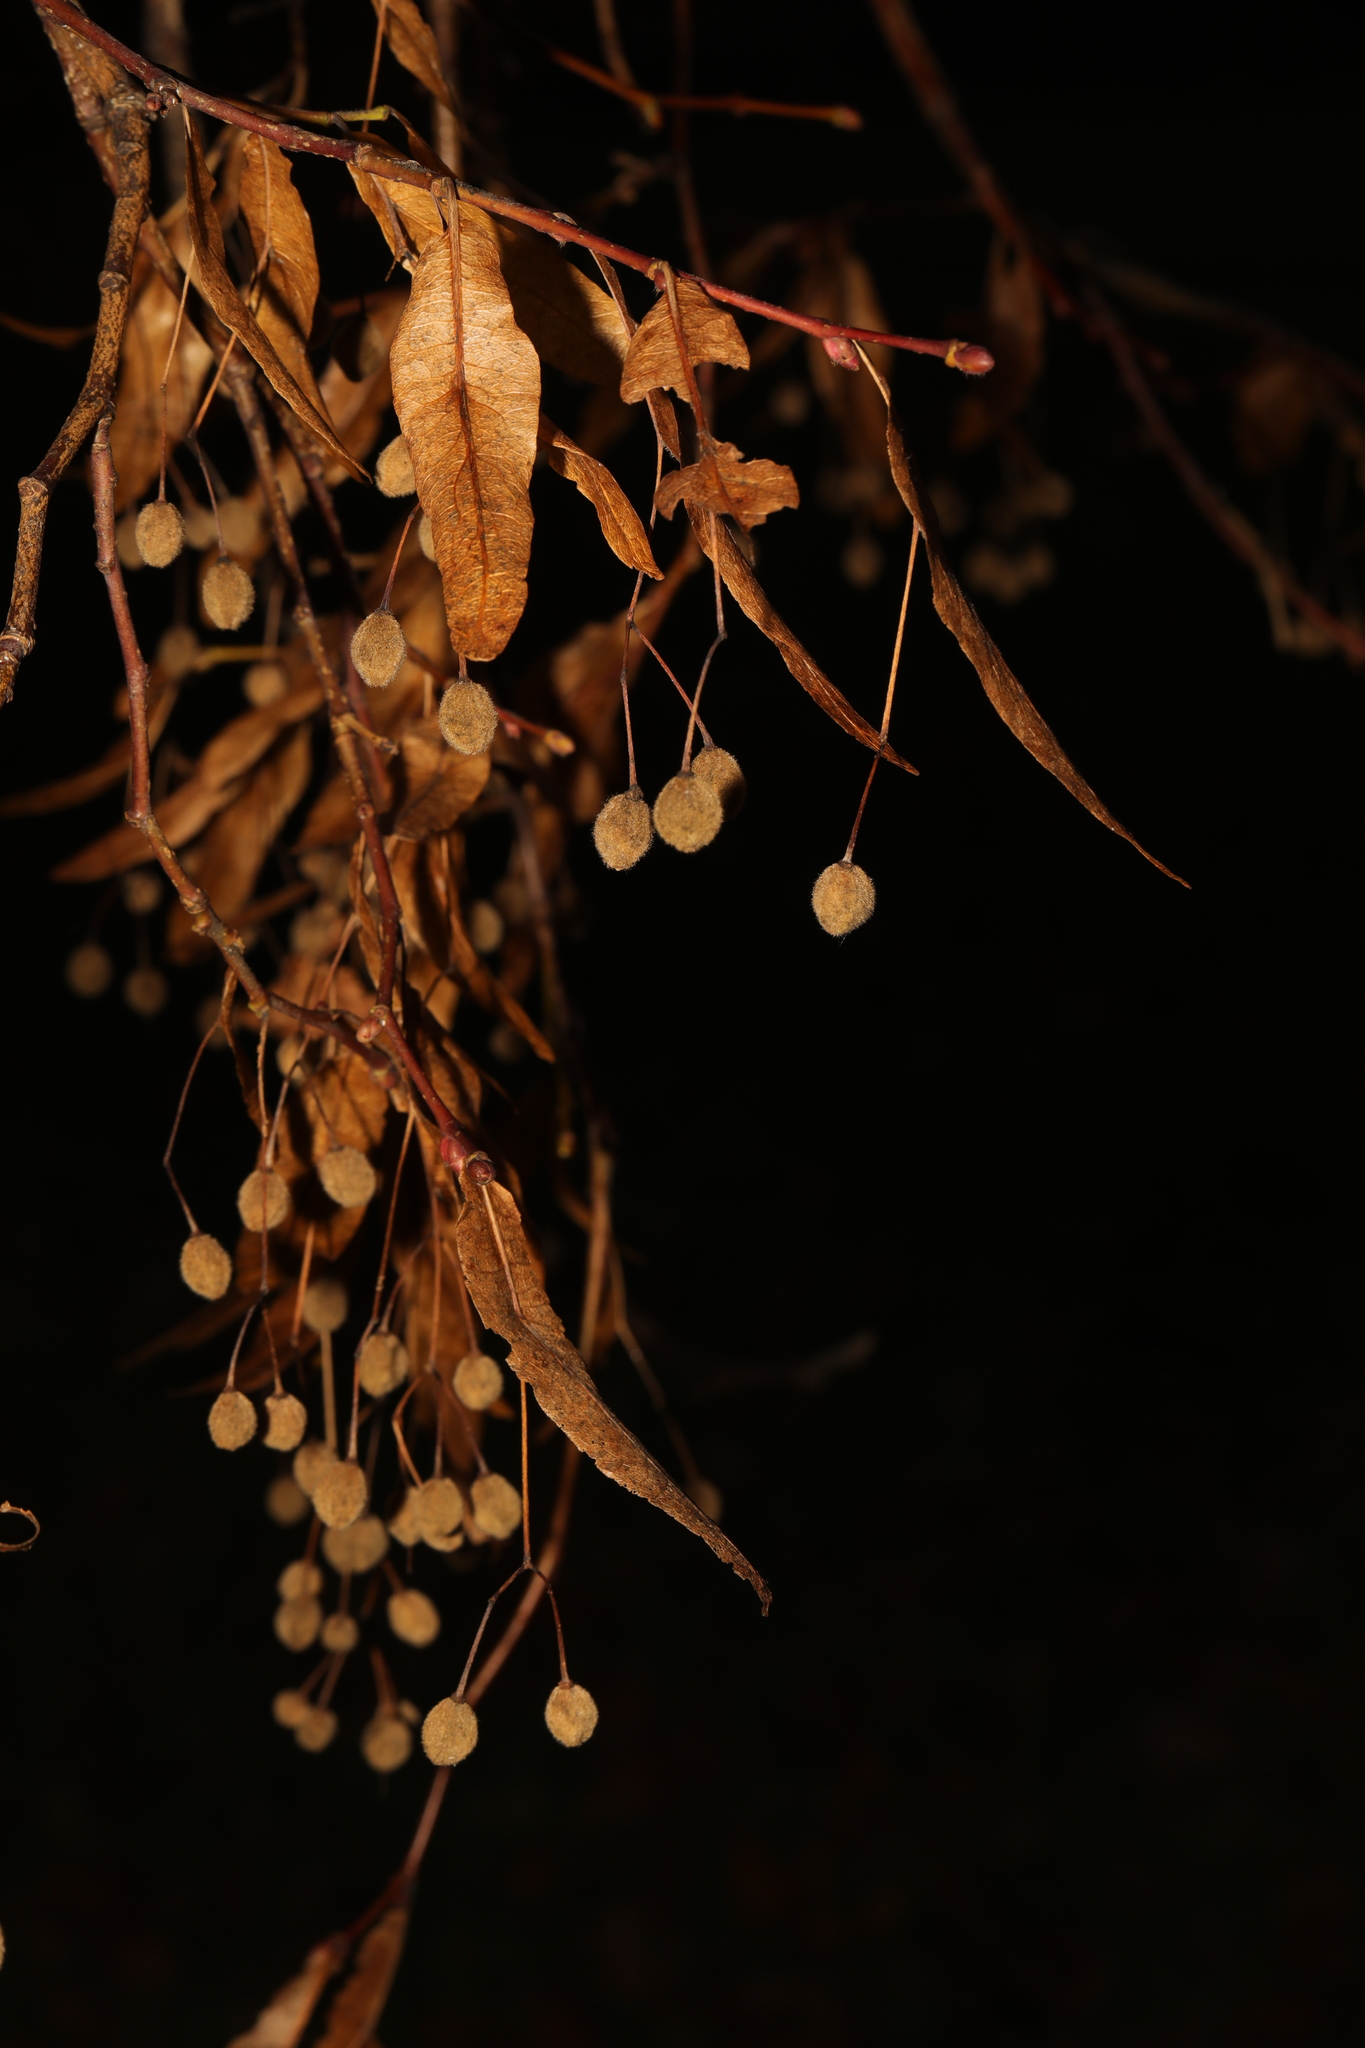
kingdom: Plantae
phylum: Tracheophyta
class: Magnoliopsida
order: Malvales
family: Malvaceae
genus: Tilia
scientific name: Tilia europaea
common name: European linden
